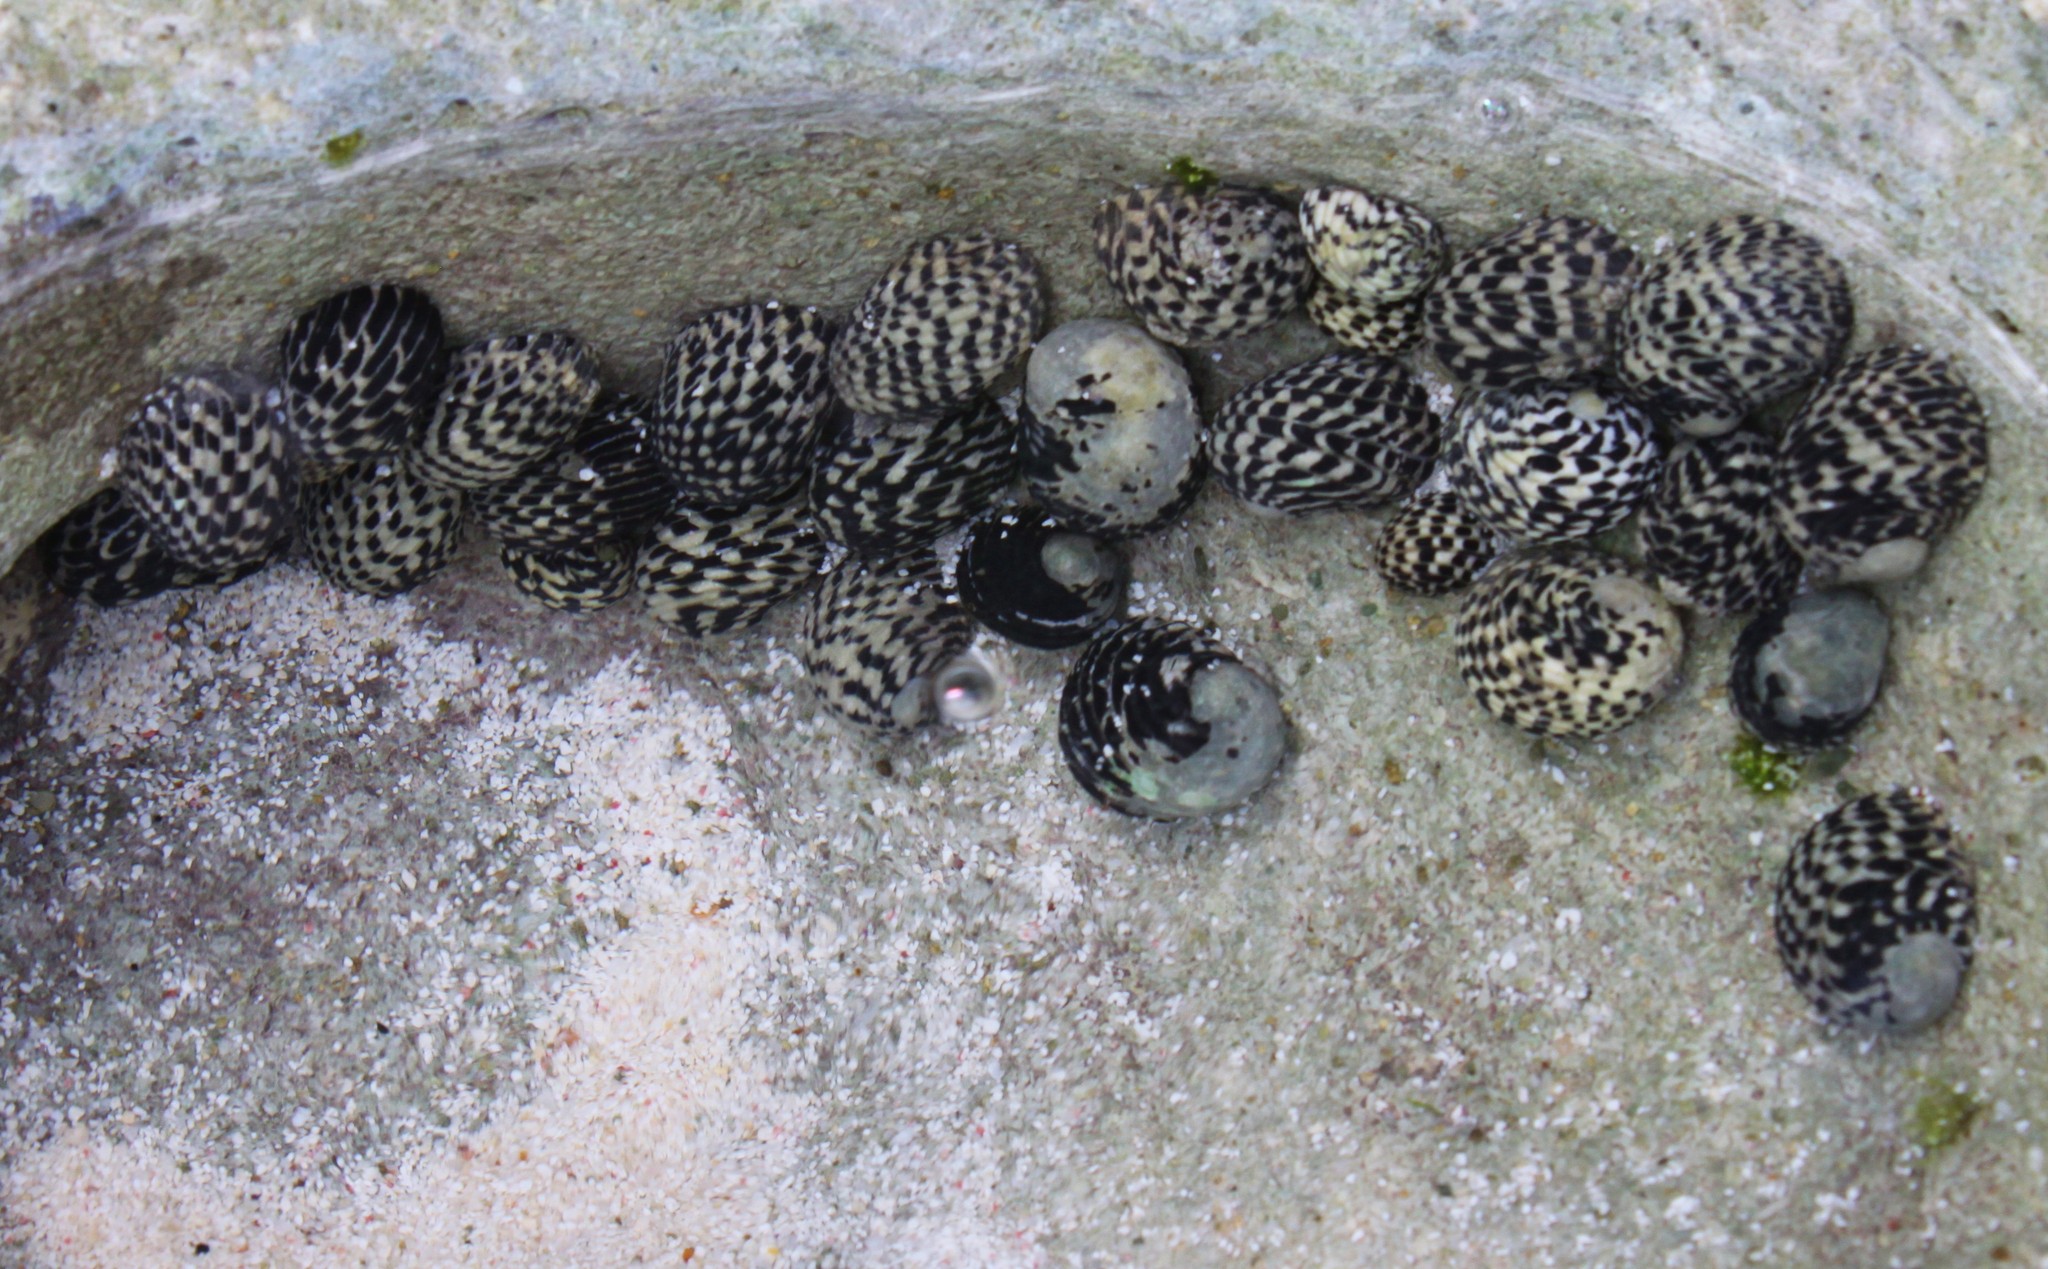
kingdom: Animalia
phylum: Mollusca
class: Gastropoda
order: Cycloneritida
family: Neritidae
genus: Nerita
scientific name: Nerita tessellata
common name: Checkered nerite
